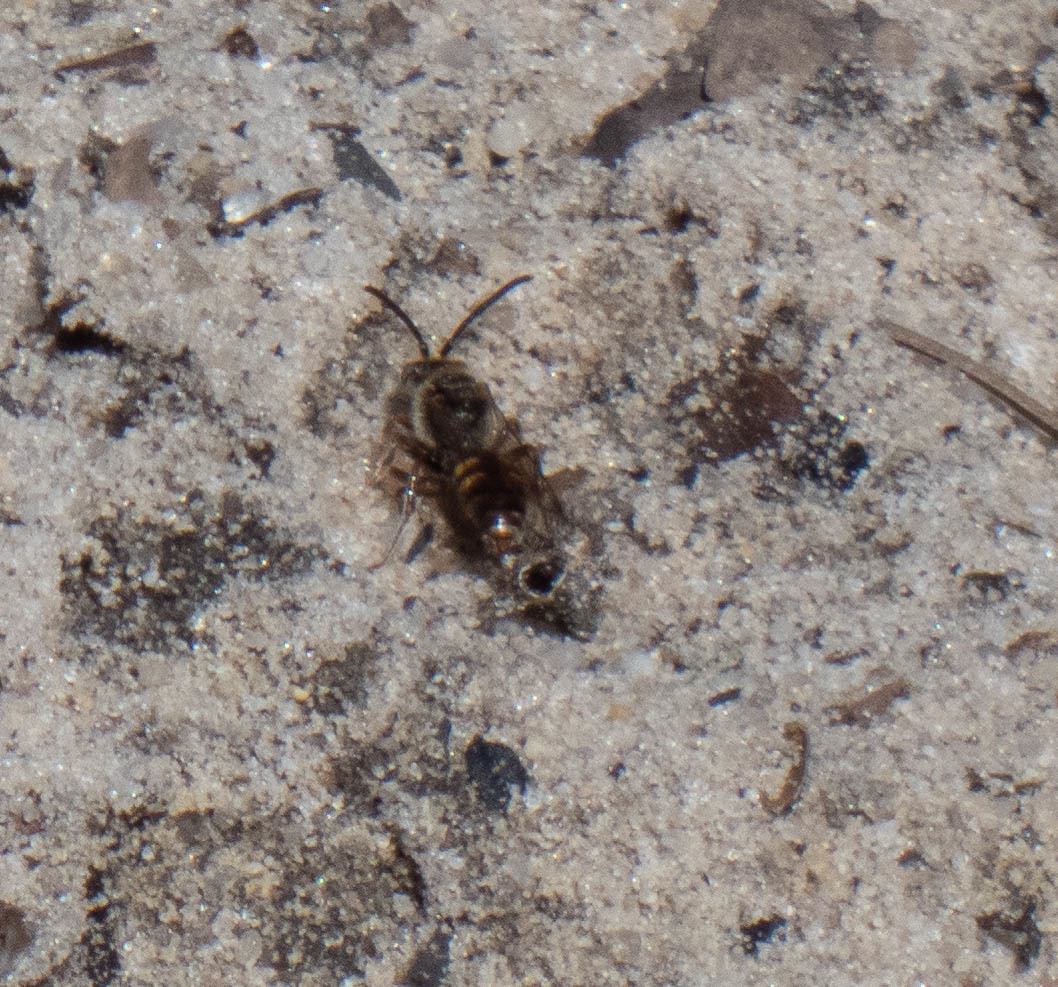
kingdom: Animalia
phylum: Arthropoda
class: Insecta
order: Hymenoptera
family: Apidae
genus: Nomada
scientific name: Nomada
